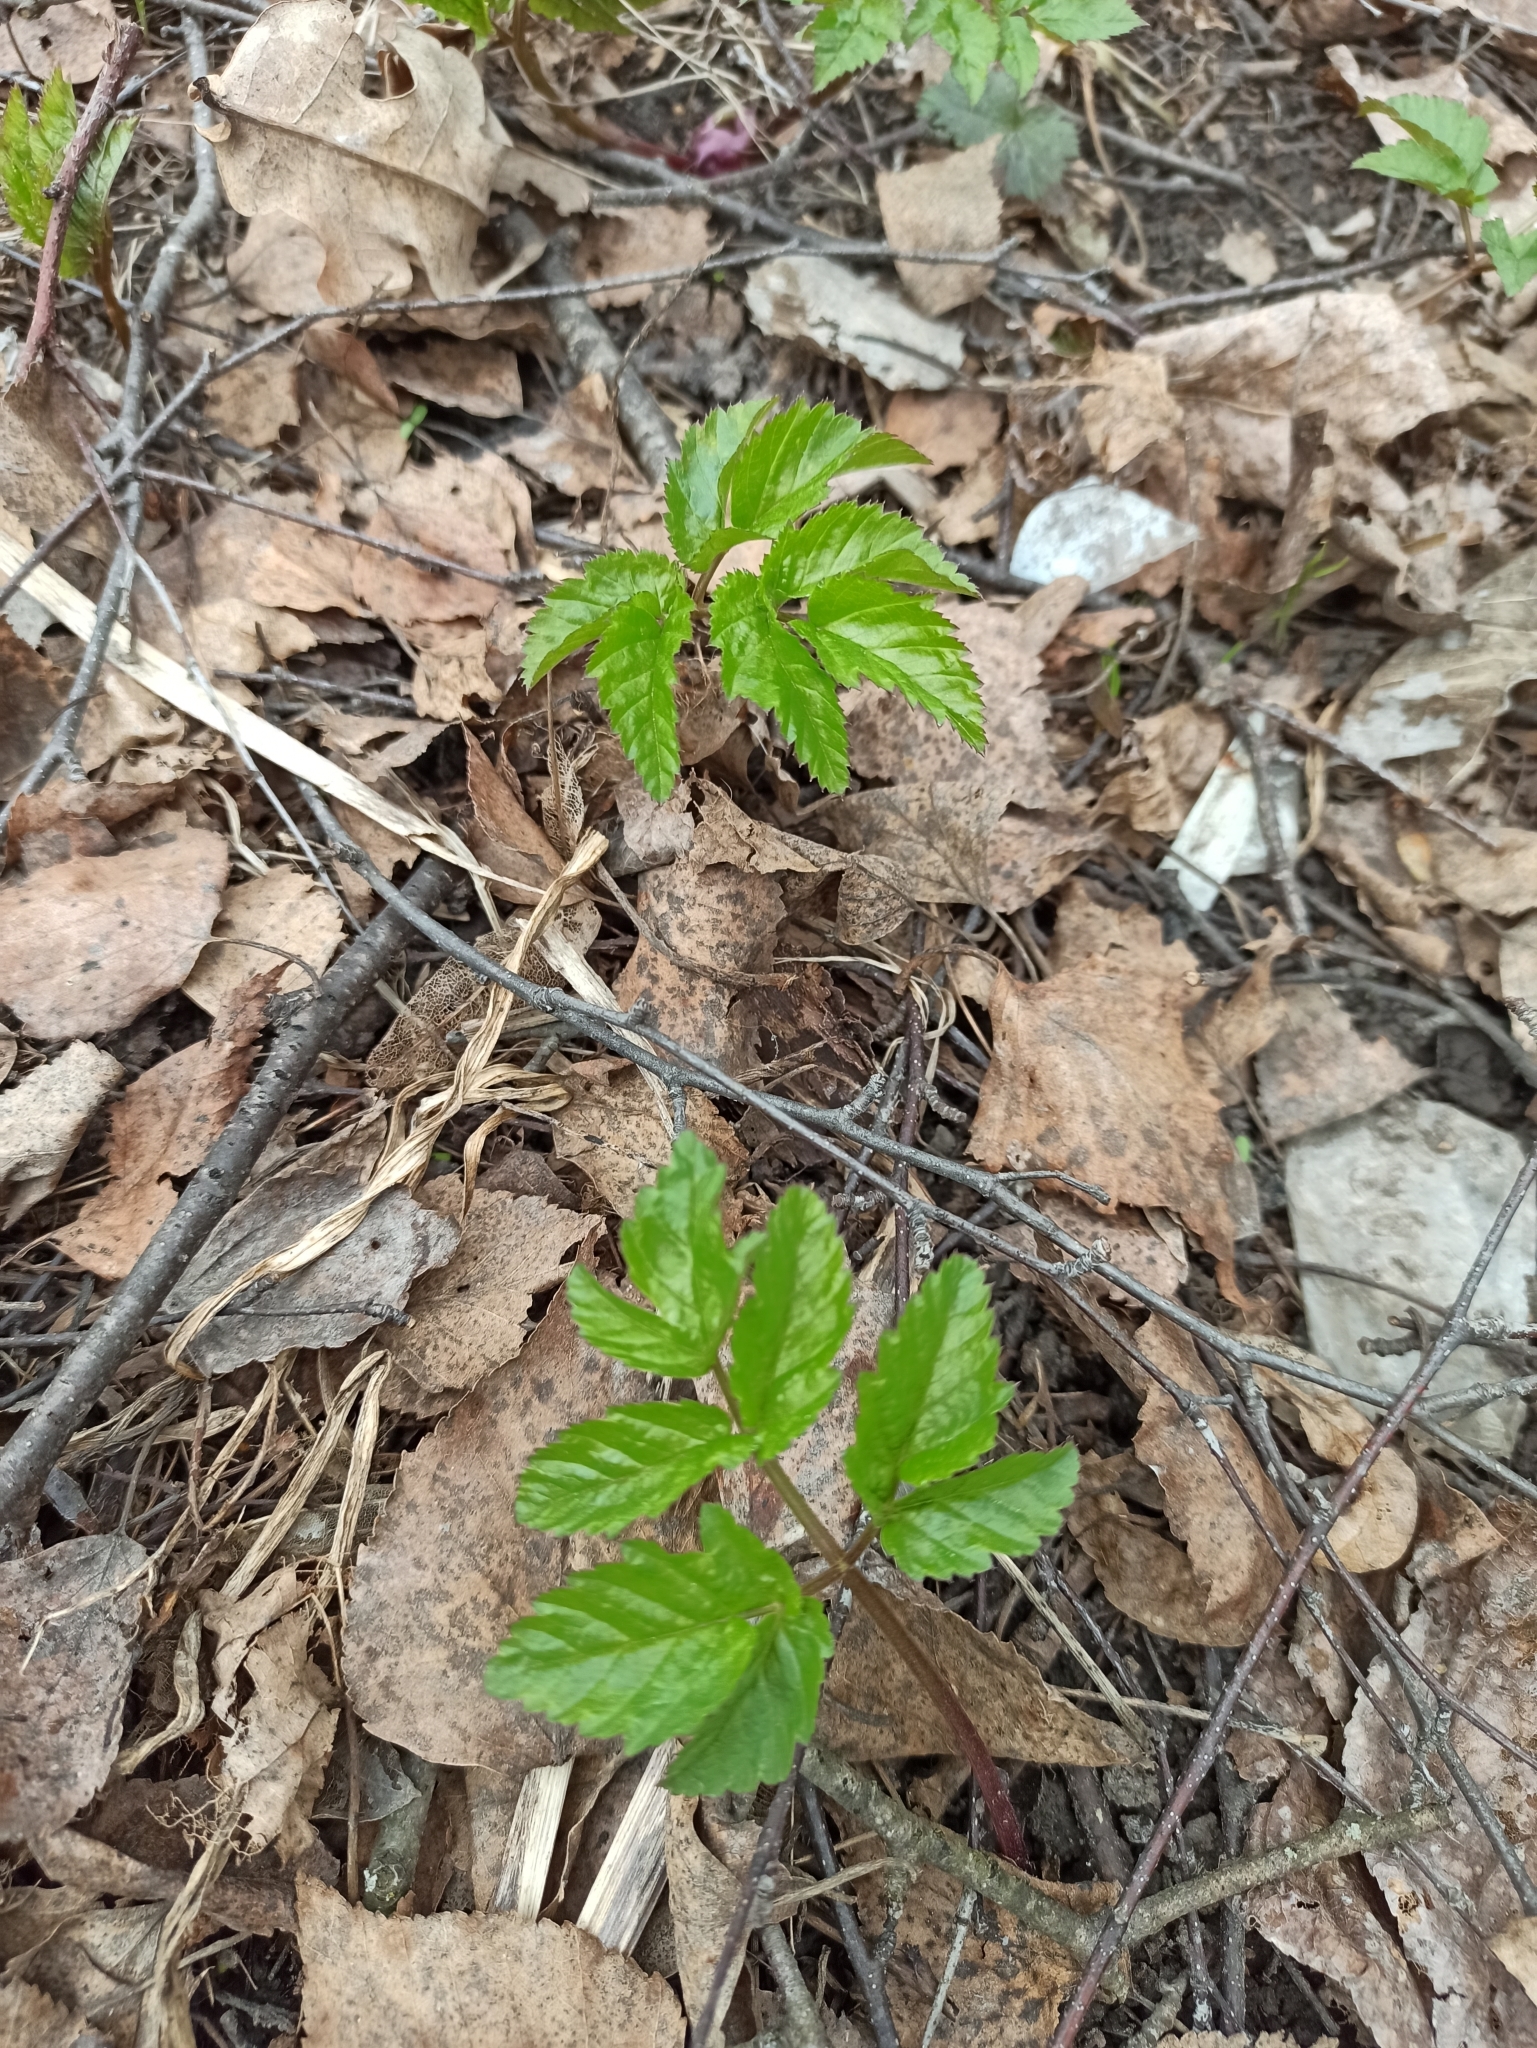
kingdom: Plantae
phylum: Tracheophyta
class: Magnoliopsida
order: Apiales
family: Apiaceae
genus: Aegopodium
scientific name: Aegopodium podagraria
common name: Ground-elder
